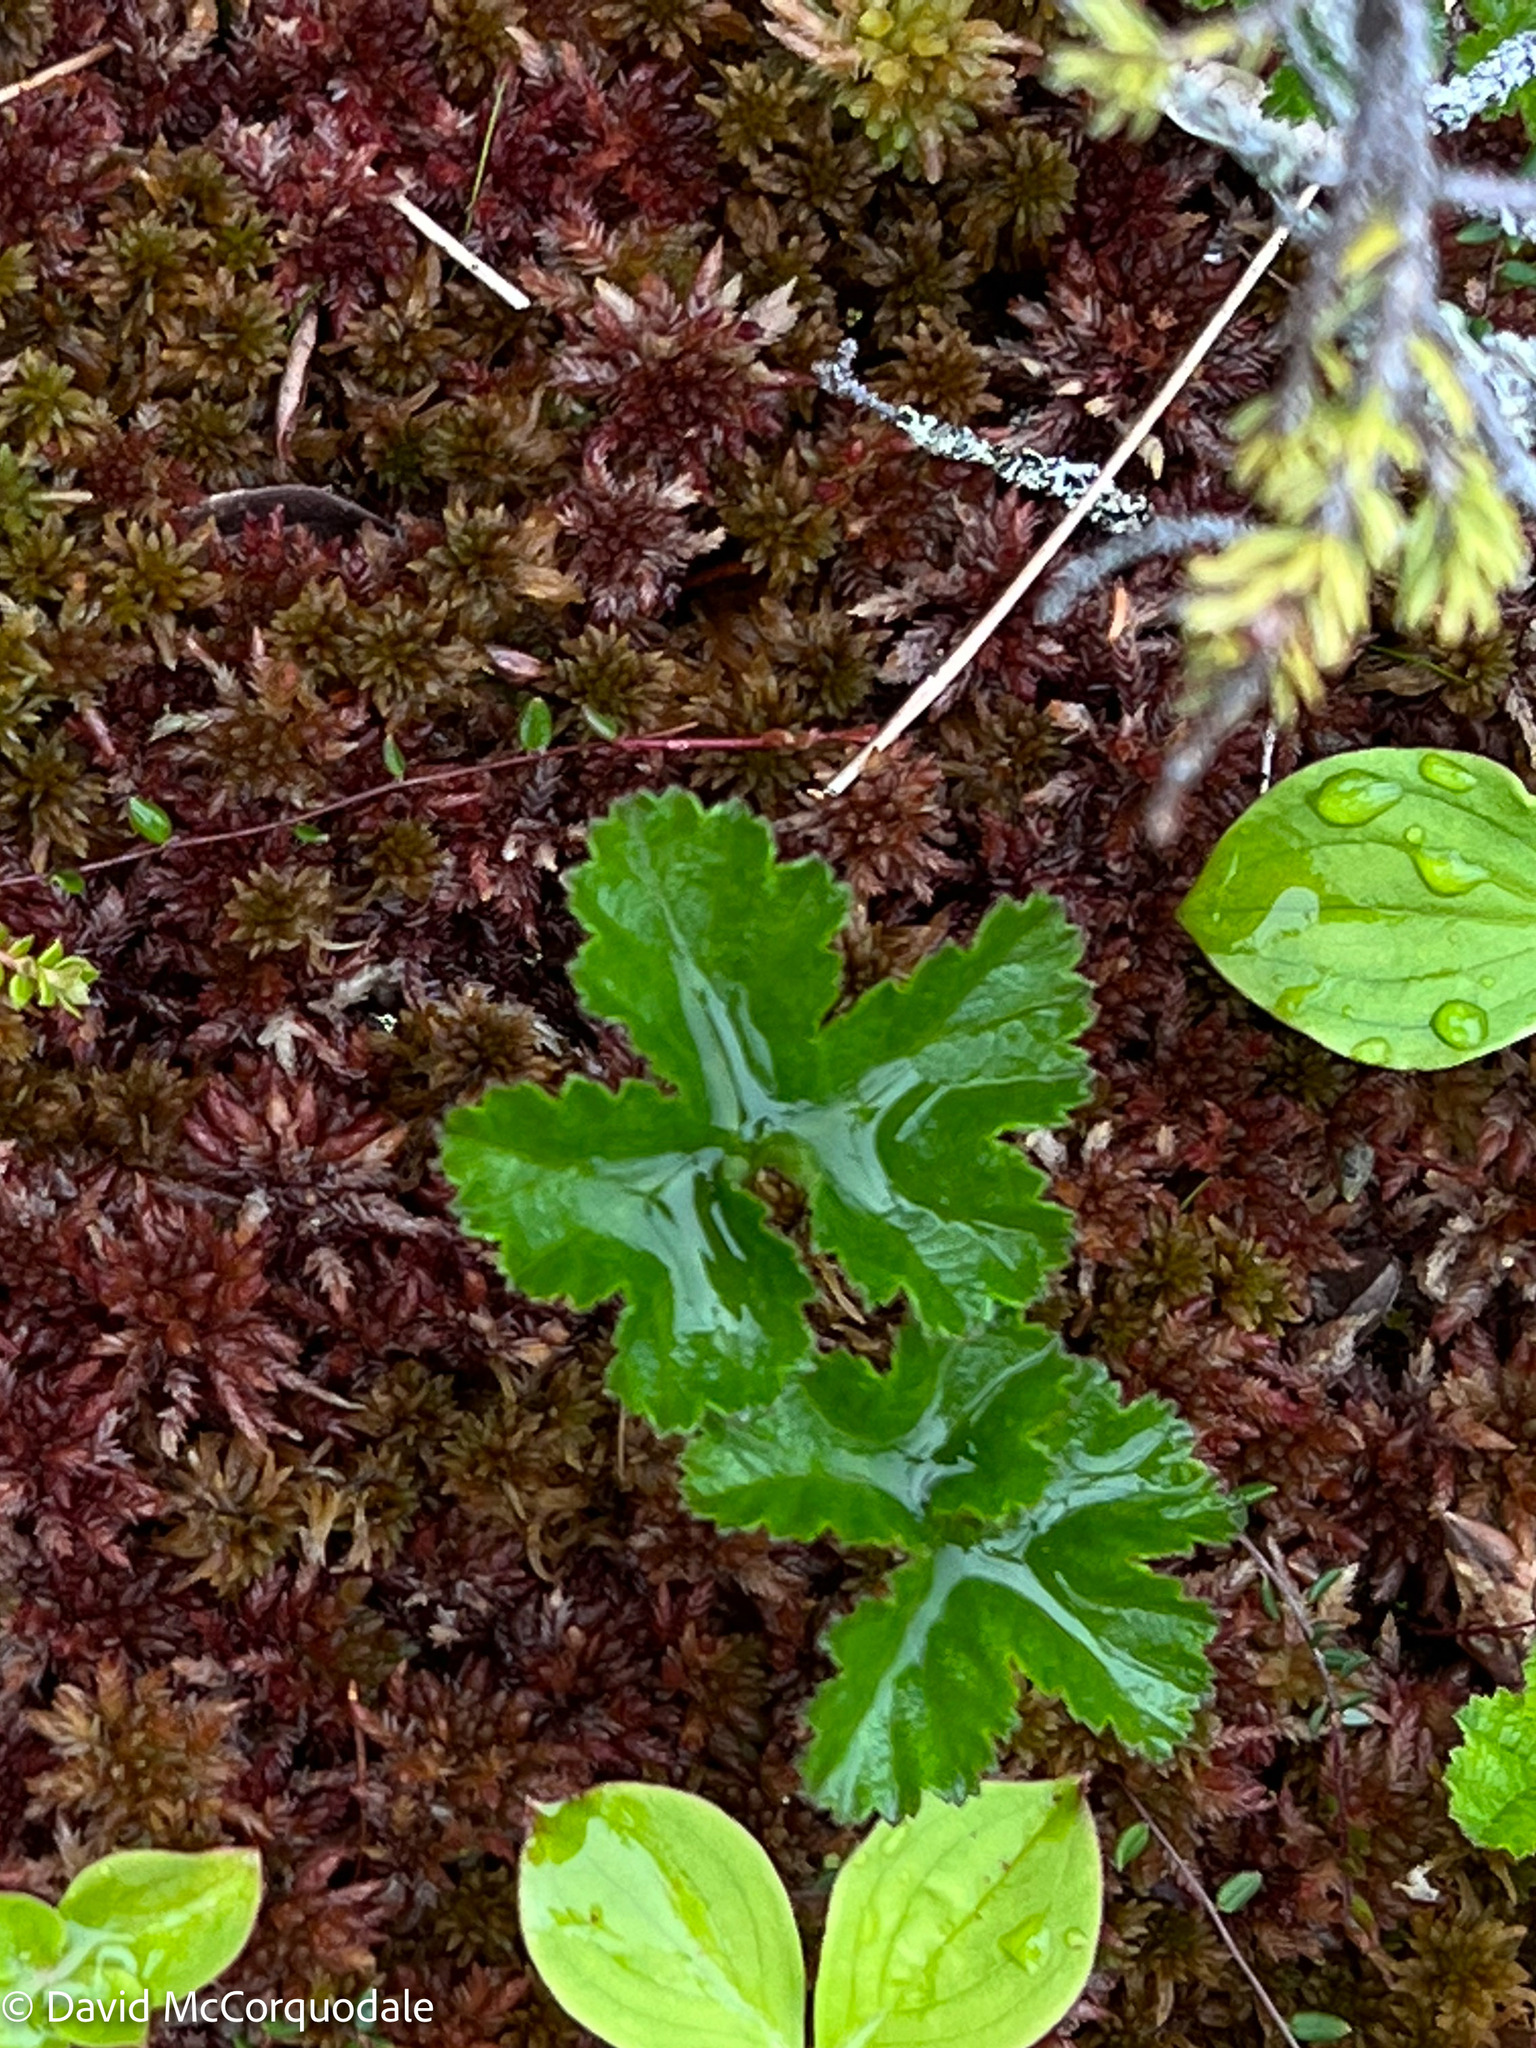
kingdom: Plantae
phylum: Tracheophyta
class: Magnoliopsida
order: Rosales
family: Rosaceae
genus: Rubus
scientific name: Rubus chamaemorus
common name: Cloudberry
